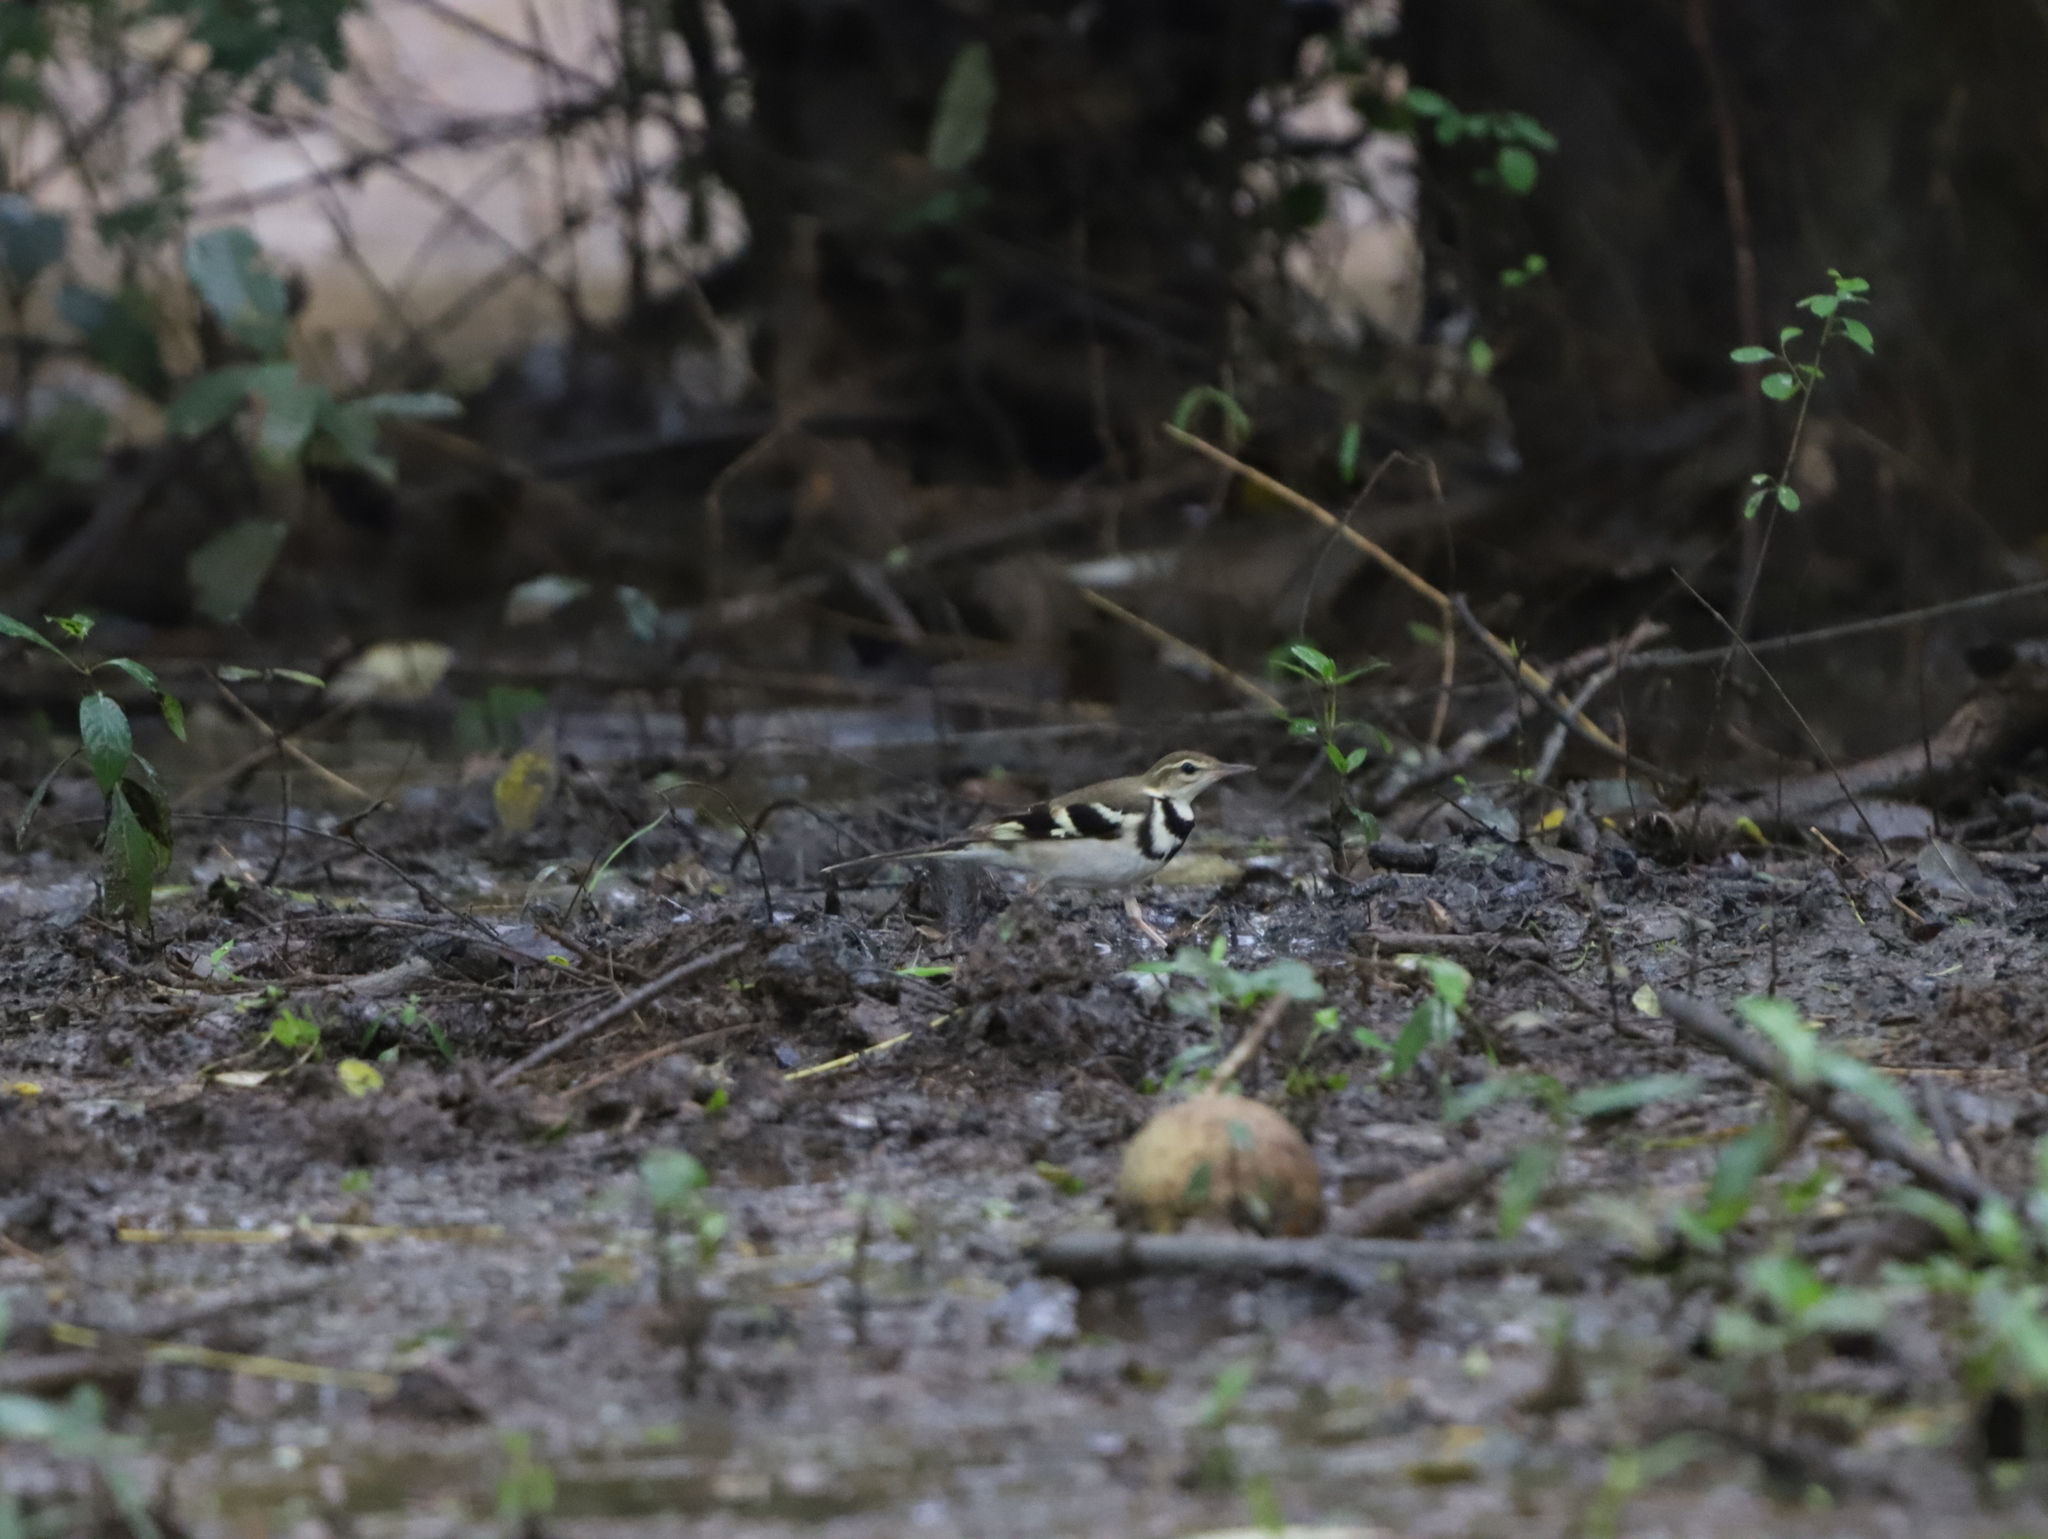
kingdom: Animalia
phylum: Chordata
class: Aves
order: Passeriformes
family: Motacillidae
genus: Dendronanthus
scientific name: Dendronanthus indicus
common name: Forest wagtail
